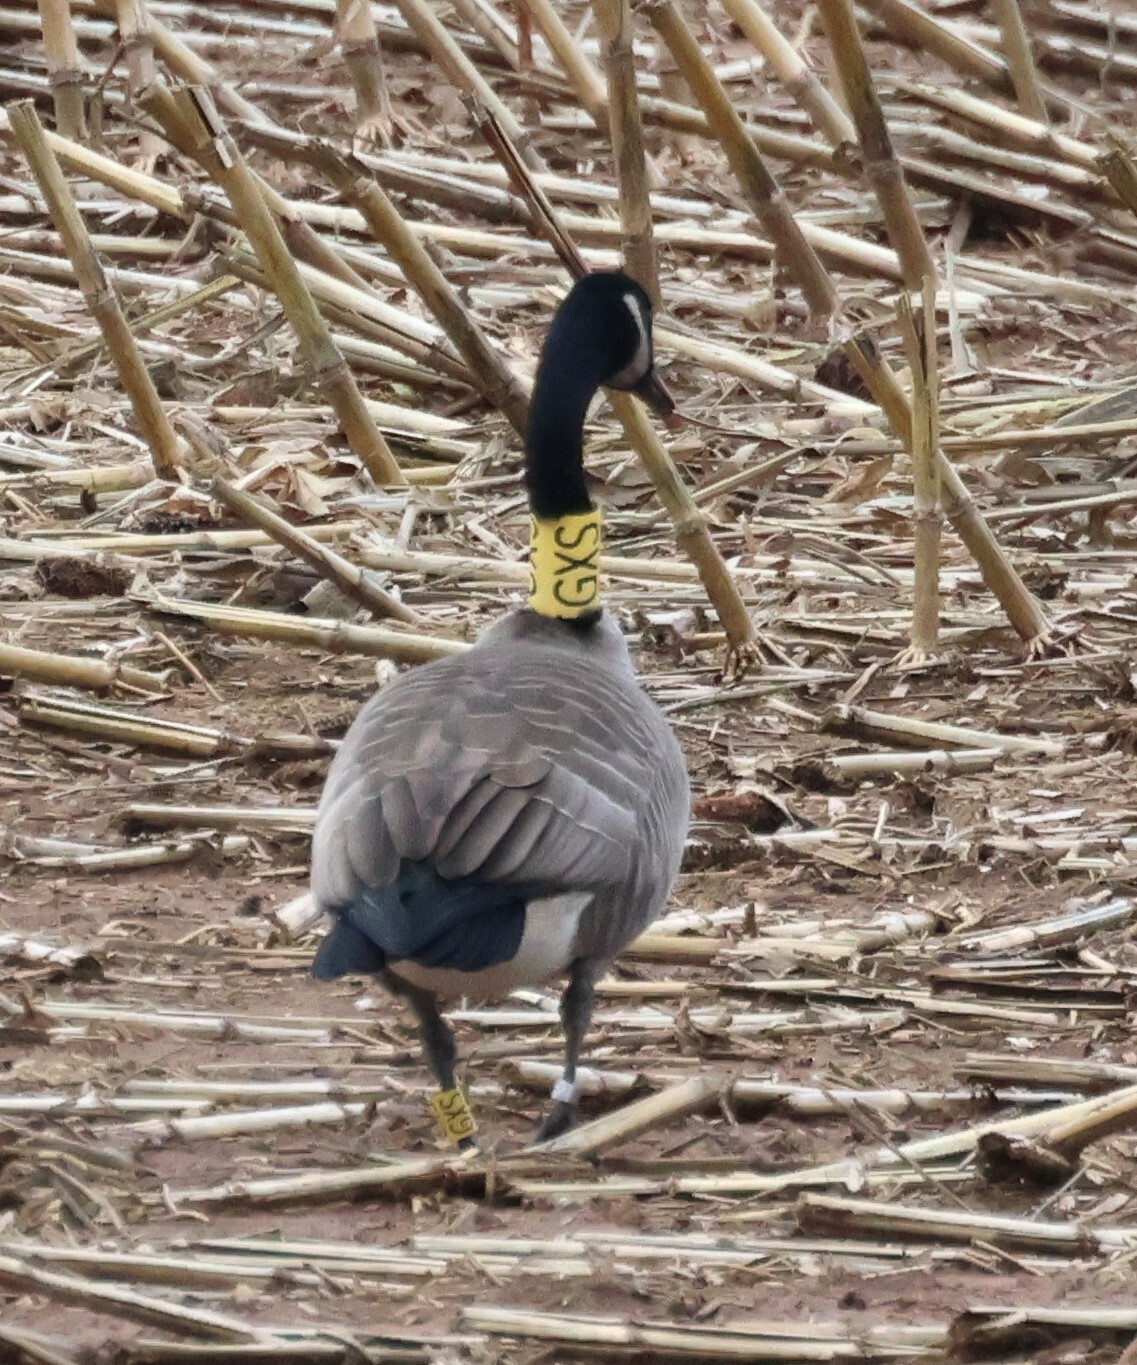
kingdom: Animalia
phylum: Chordata
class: Aves
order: Anseriformes
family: Anatidae
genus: Branta
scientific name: Branta canadensis
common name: Canada goose
